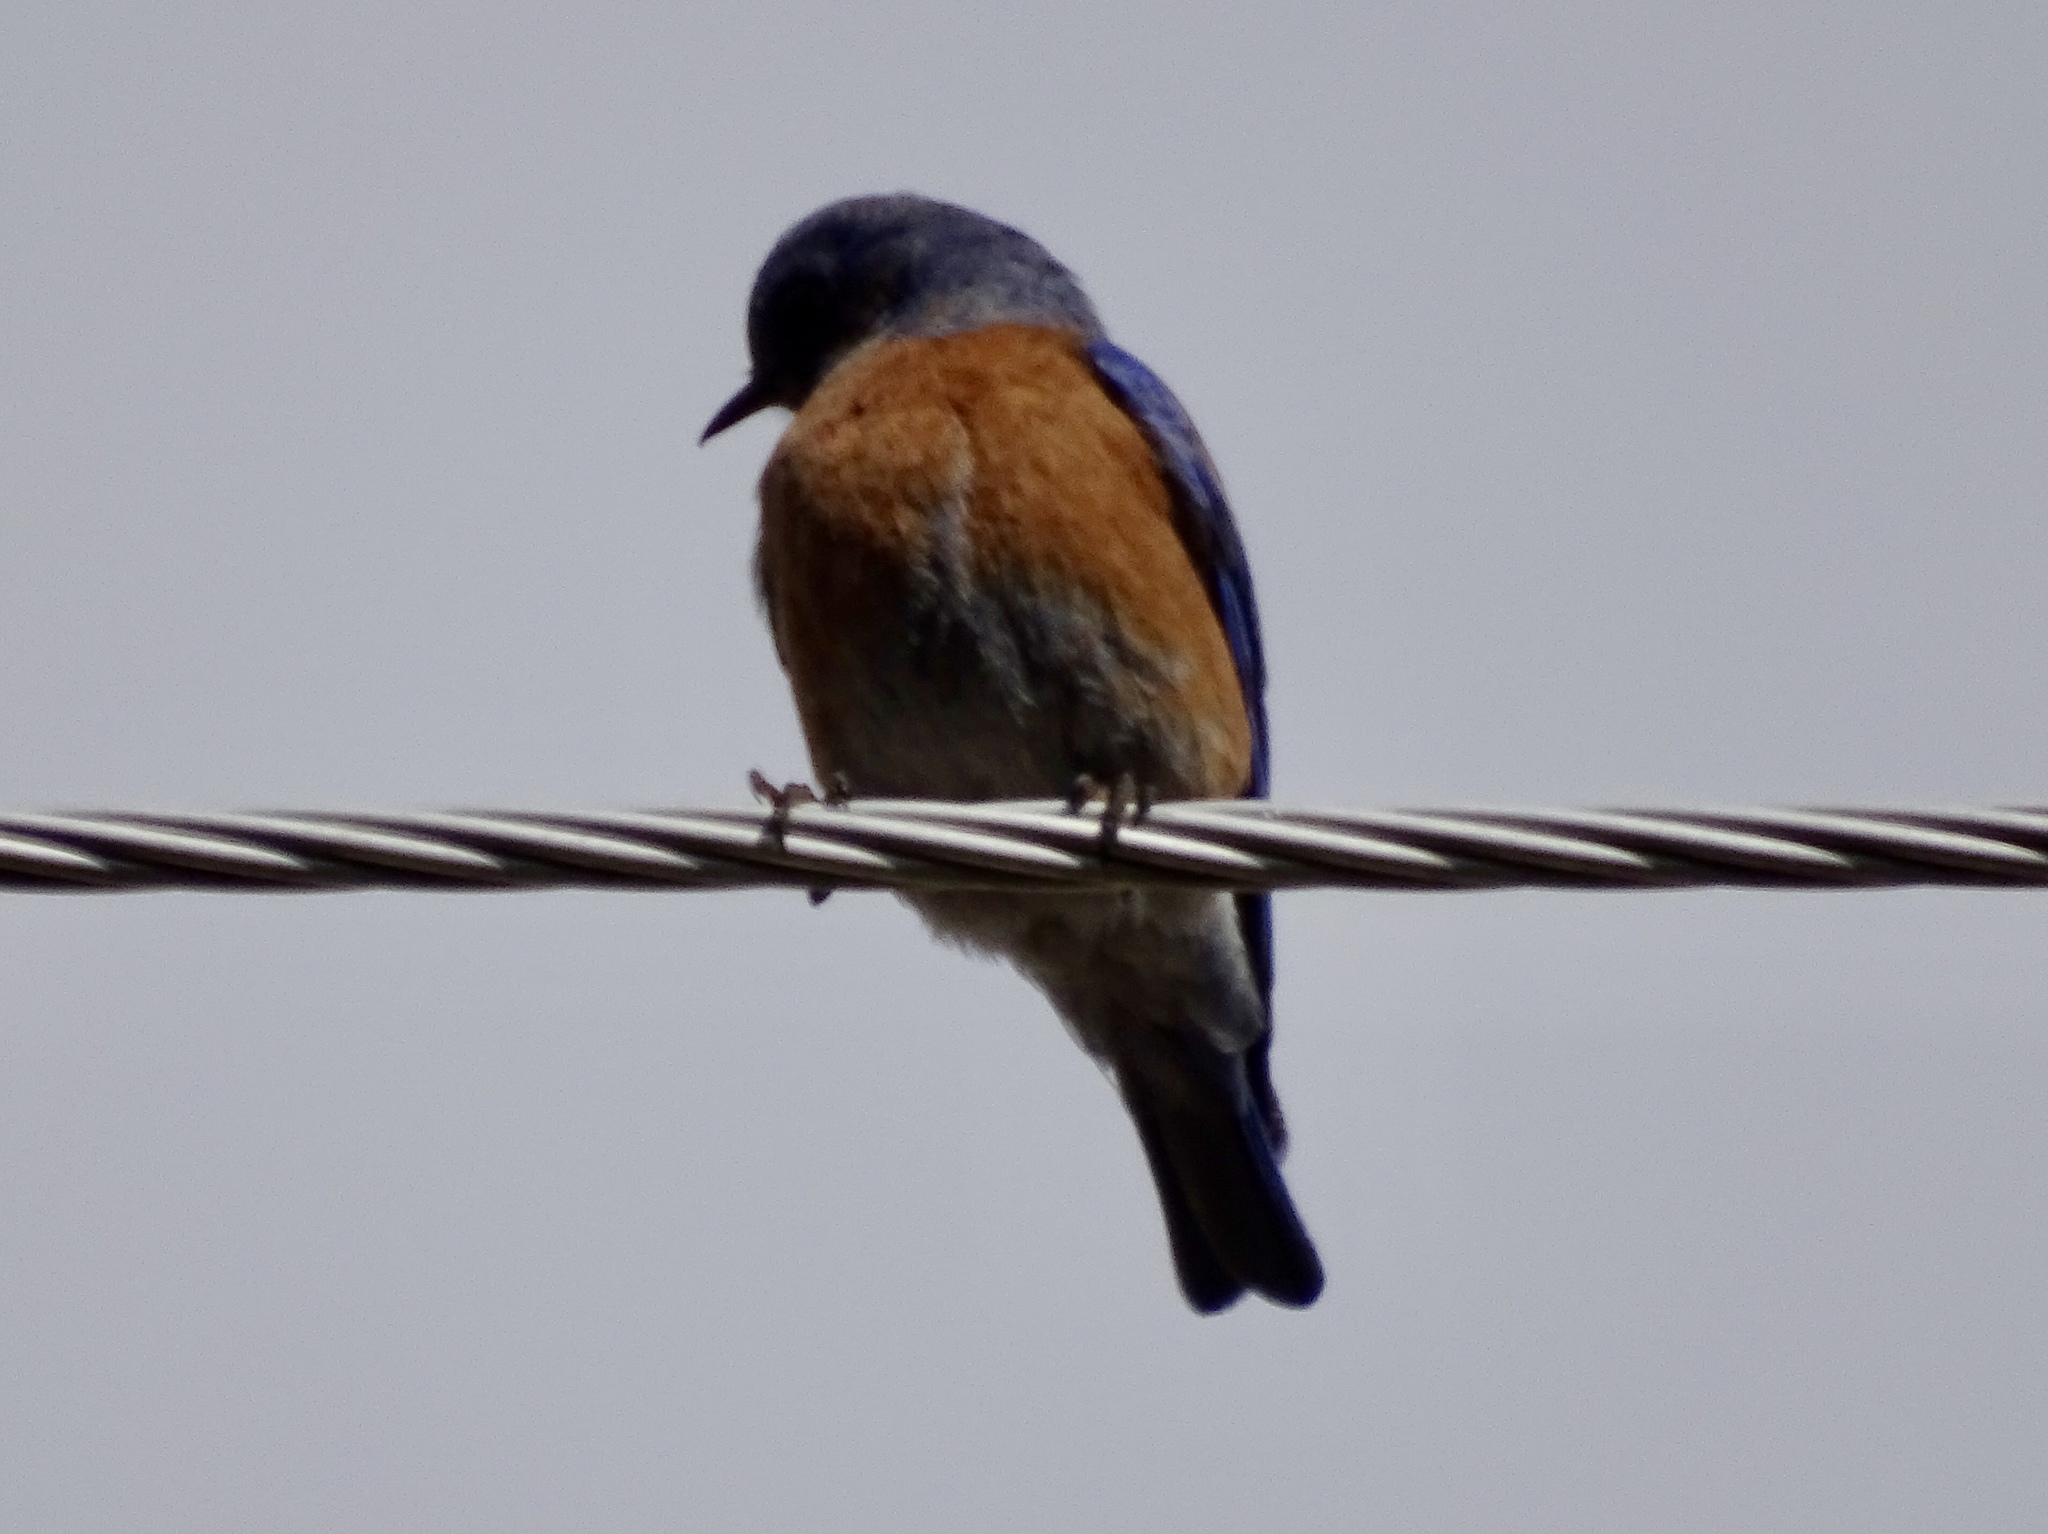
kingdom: Animalia
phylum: Chordata
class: Aves
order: Passeriformes
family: Turdidae
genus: Sialia
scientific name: Sialia mexicana
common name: Western bluebird
